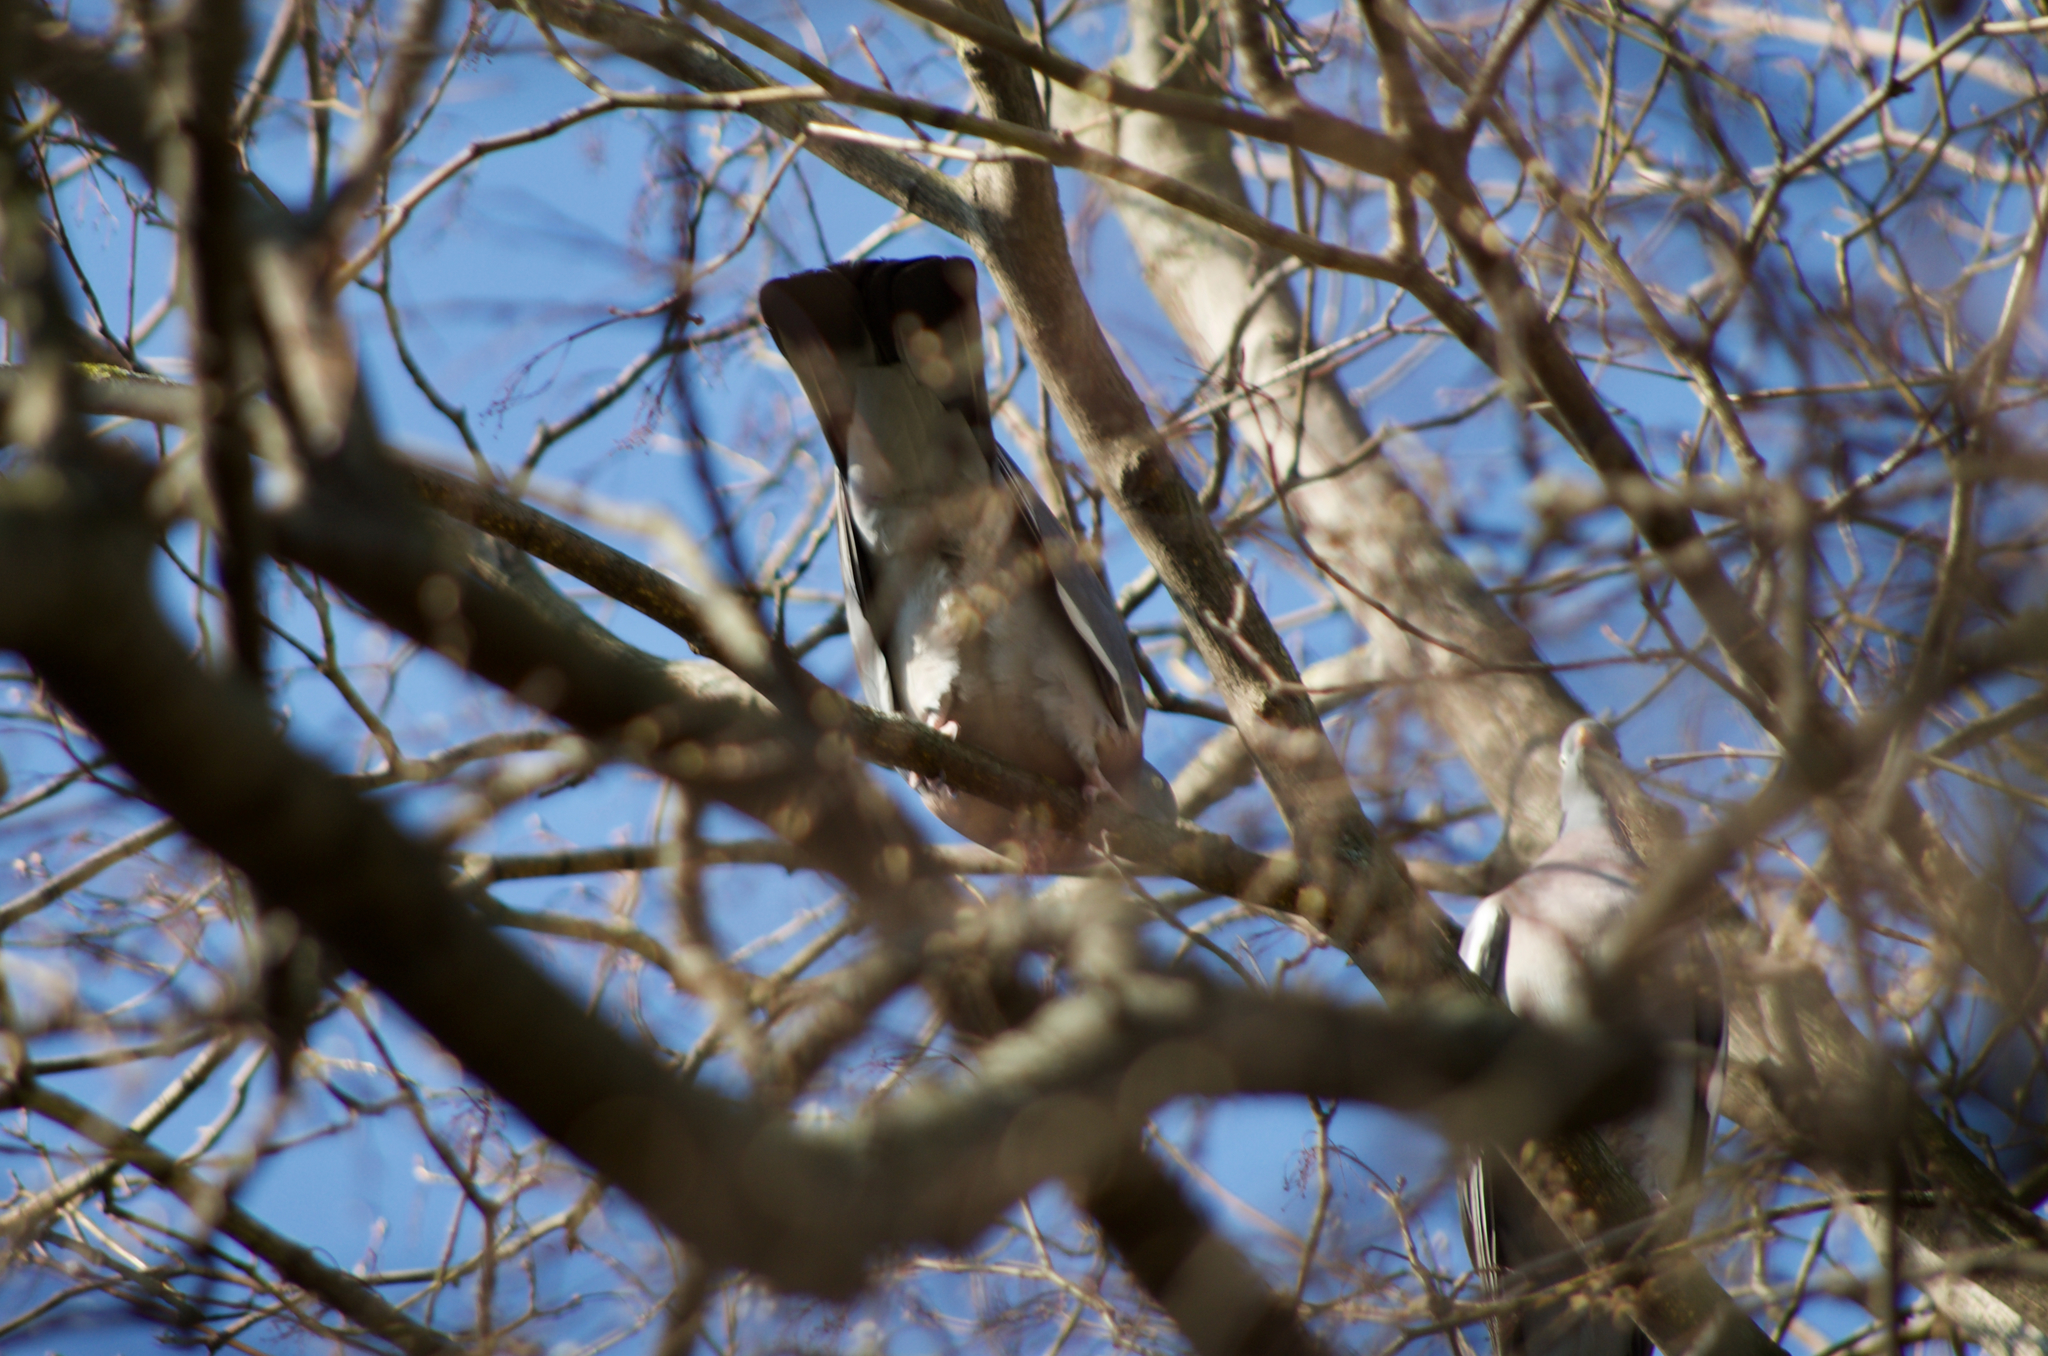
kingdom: Animalia
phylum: Chordata
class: Aves
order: Columbiformes
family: Columbidae
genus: Columba
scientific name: Columba palumbus
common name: Common wood pigeon
